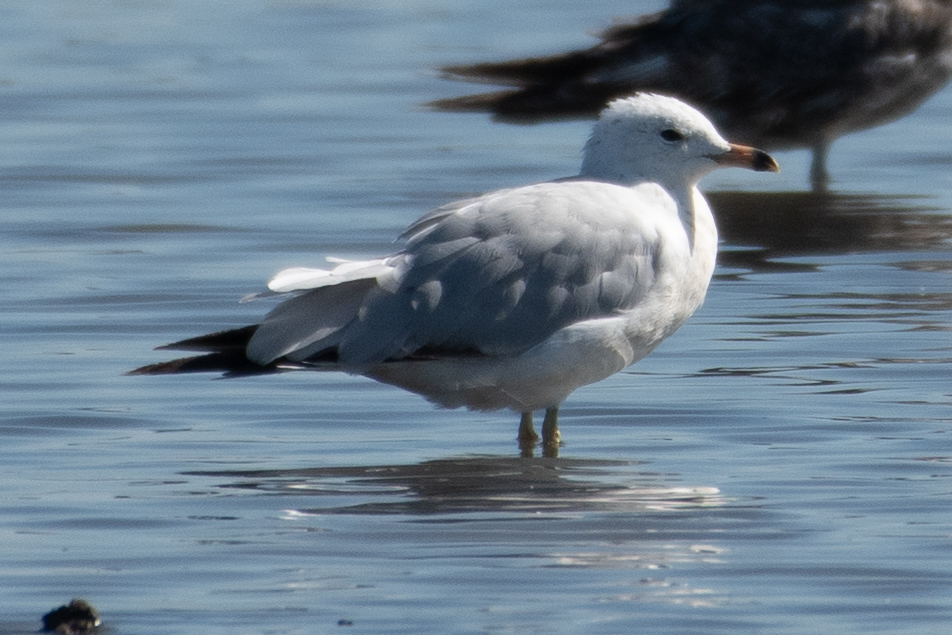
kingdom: Animalia
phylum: Chordata
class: Aves
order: Charadriiformes
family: Laridae
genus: Larus
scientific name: Larus delawarensis
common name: Ring-billed gull
